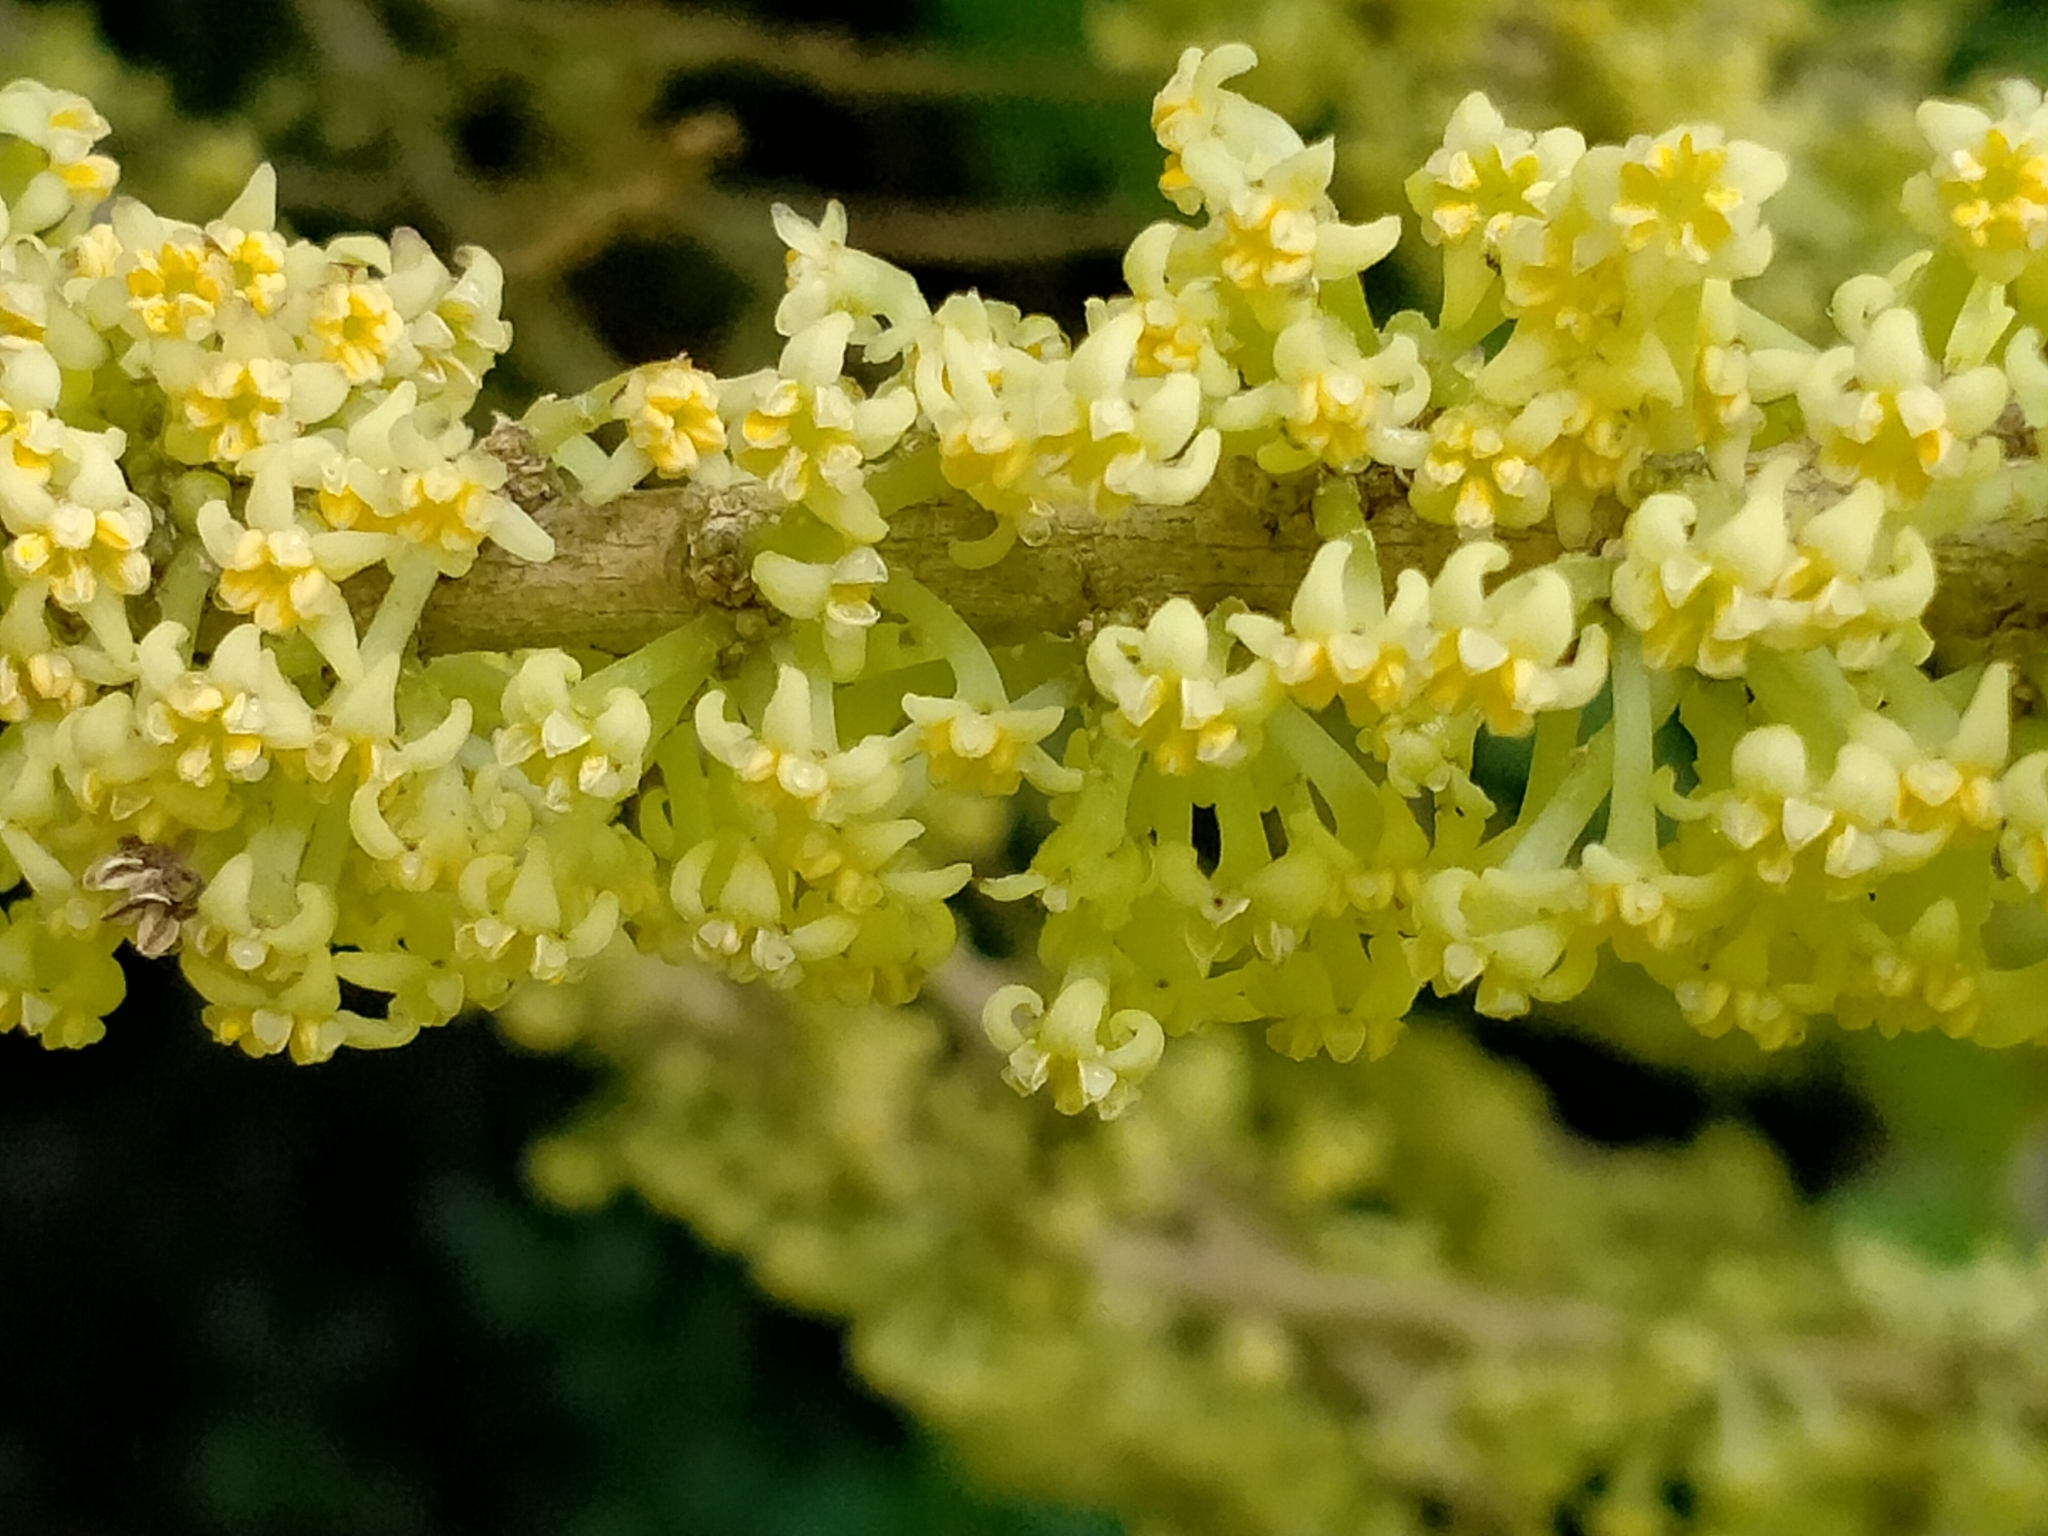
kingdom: Plantae
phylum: Tracheophyta
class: Magnoliopsida
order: Malpighiales
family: Violaceae
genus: Melicytus
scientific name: Melicytus ramiflorus
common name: Mahoe
